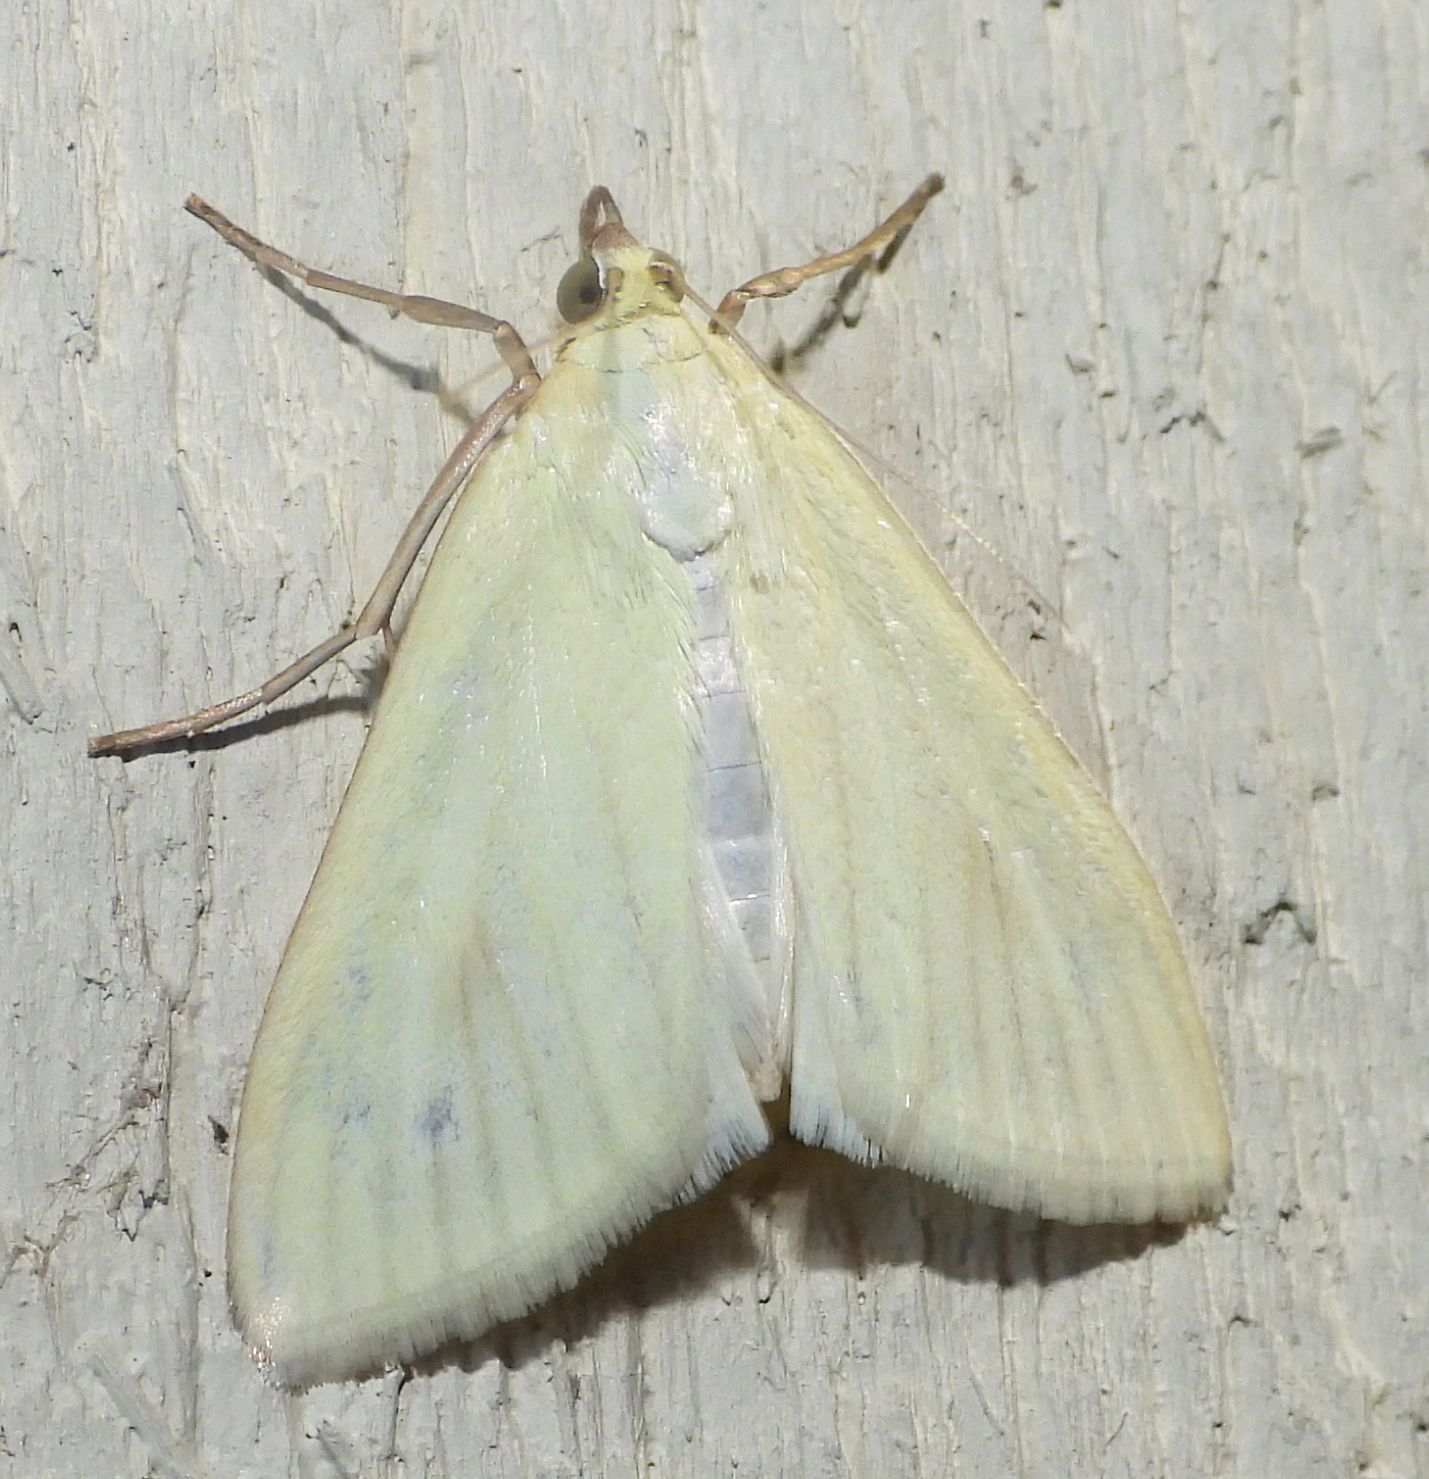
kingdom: Animalia
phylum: Arthropoda
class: Insecta
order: Lepidoptera
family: Crambidae
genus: Sitochroa
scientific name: Sitochroa palealis
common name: Greenish-yellow sitochroa moth
